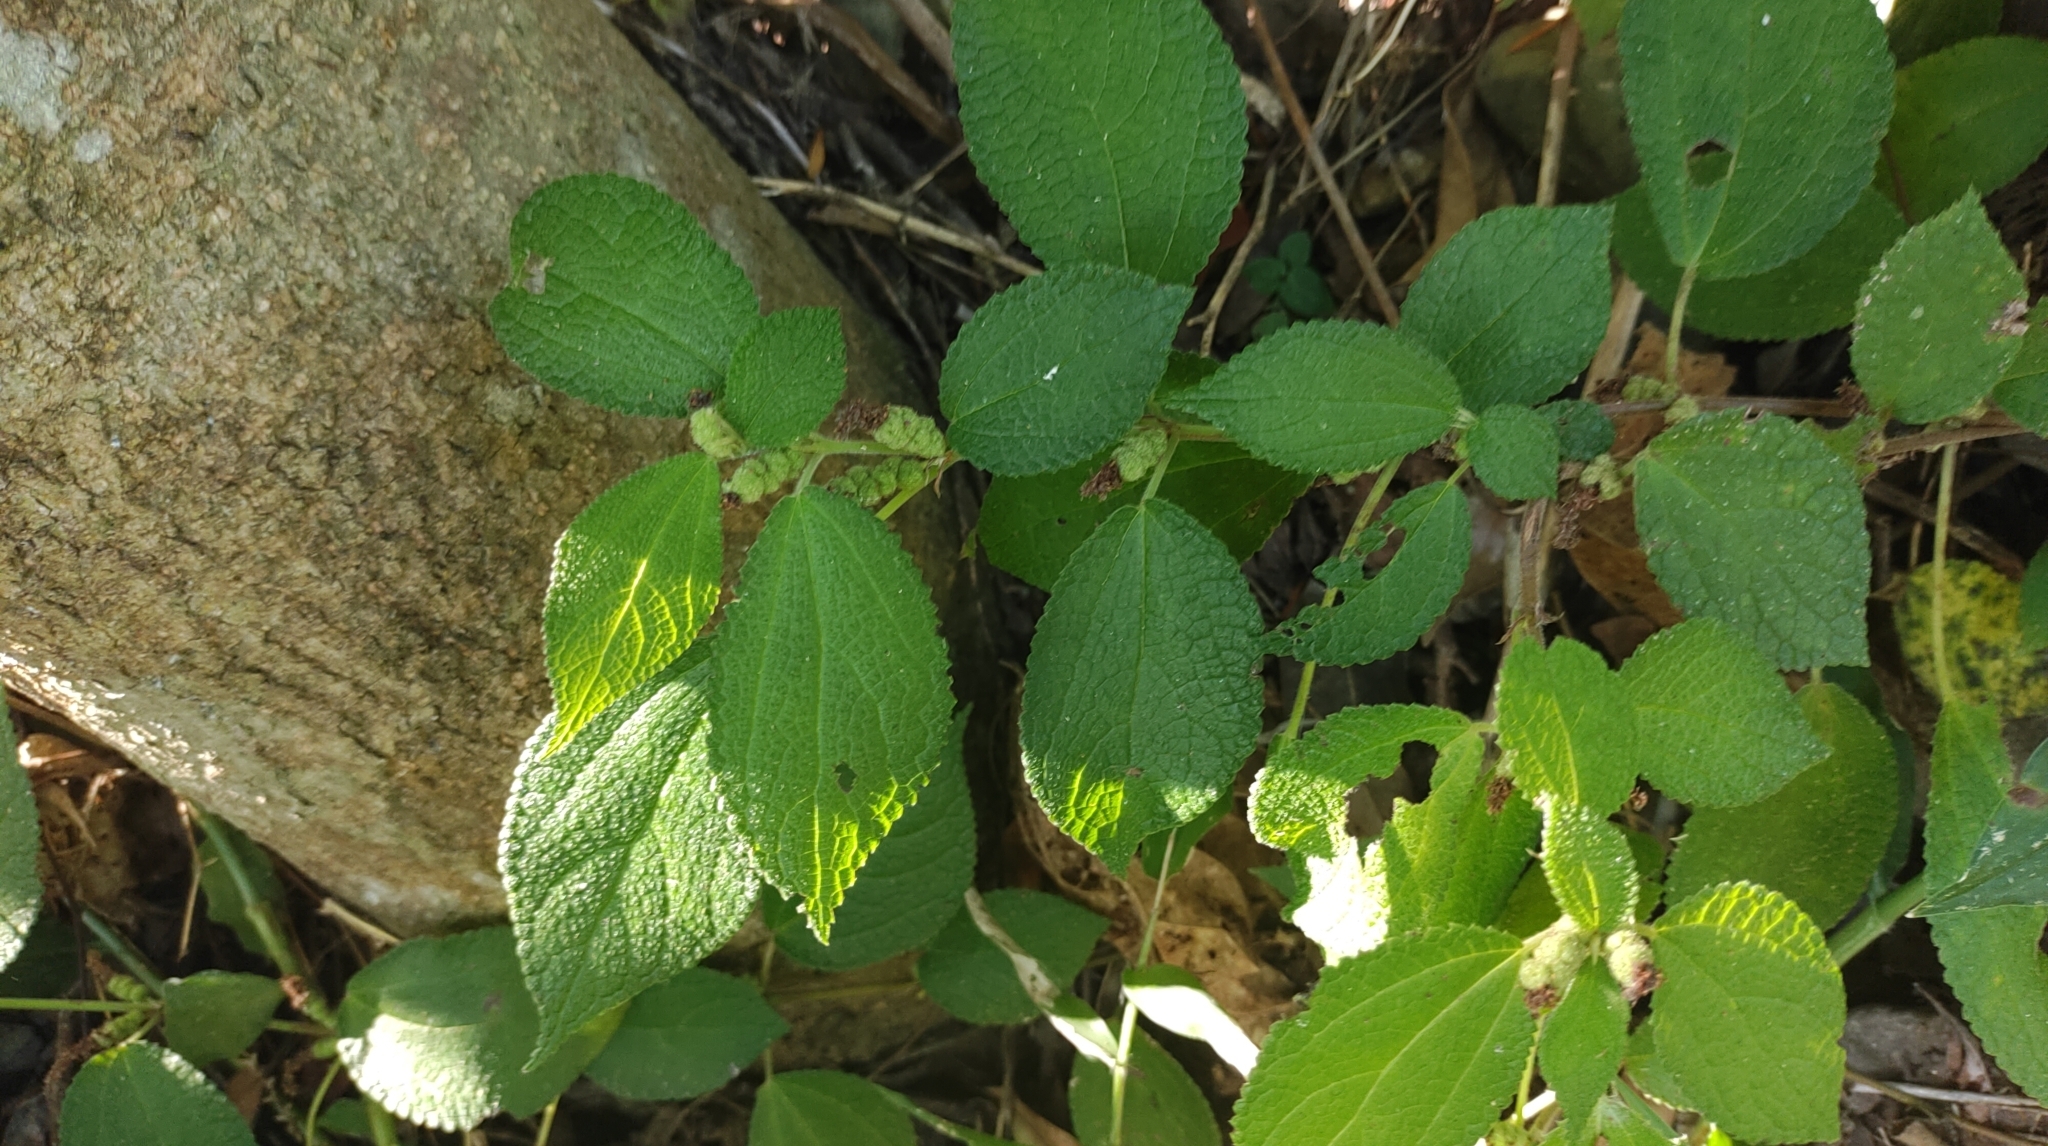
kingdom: Plantae
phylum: Tracheophyta
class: Magnoliopsida
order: Rosales
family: Urticaceae
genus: Boehmeria
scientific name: Boehmeria pilosiuscula
